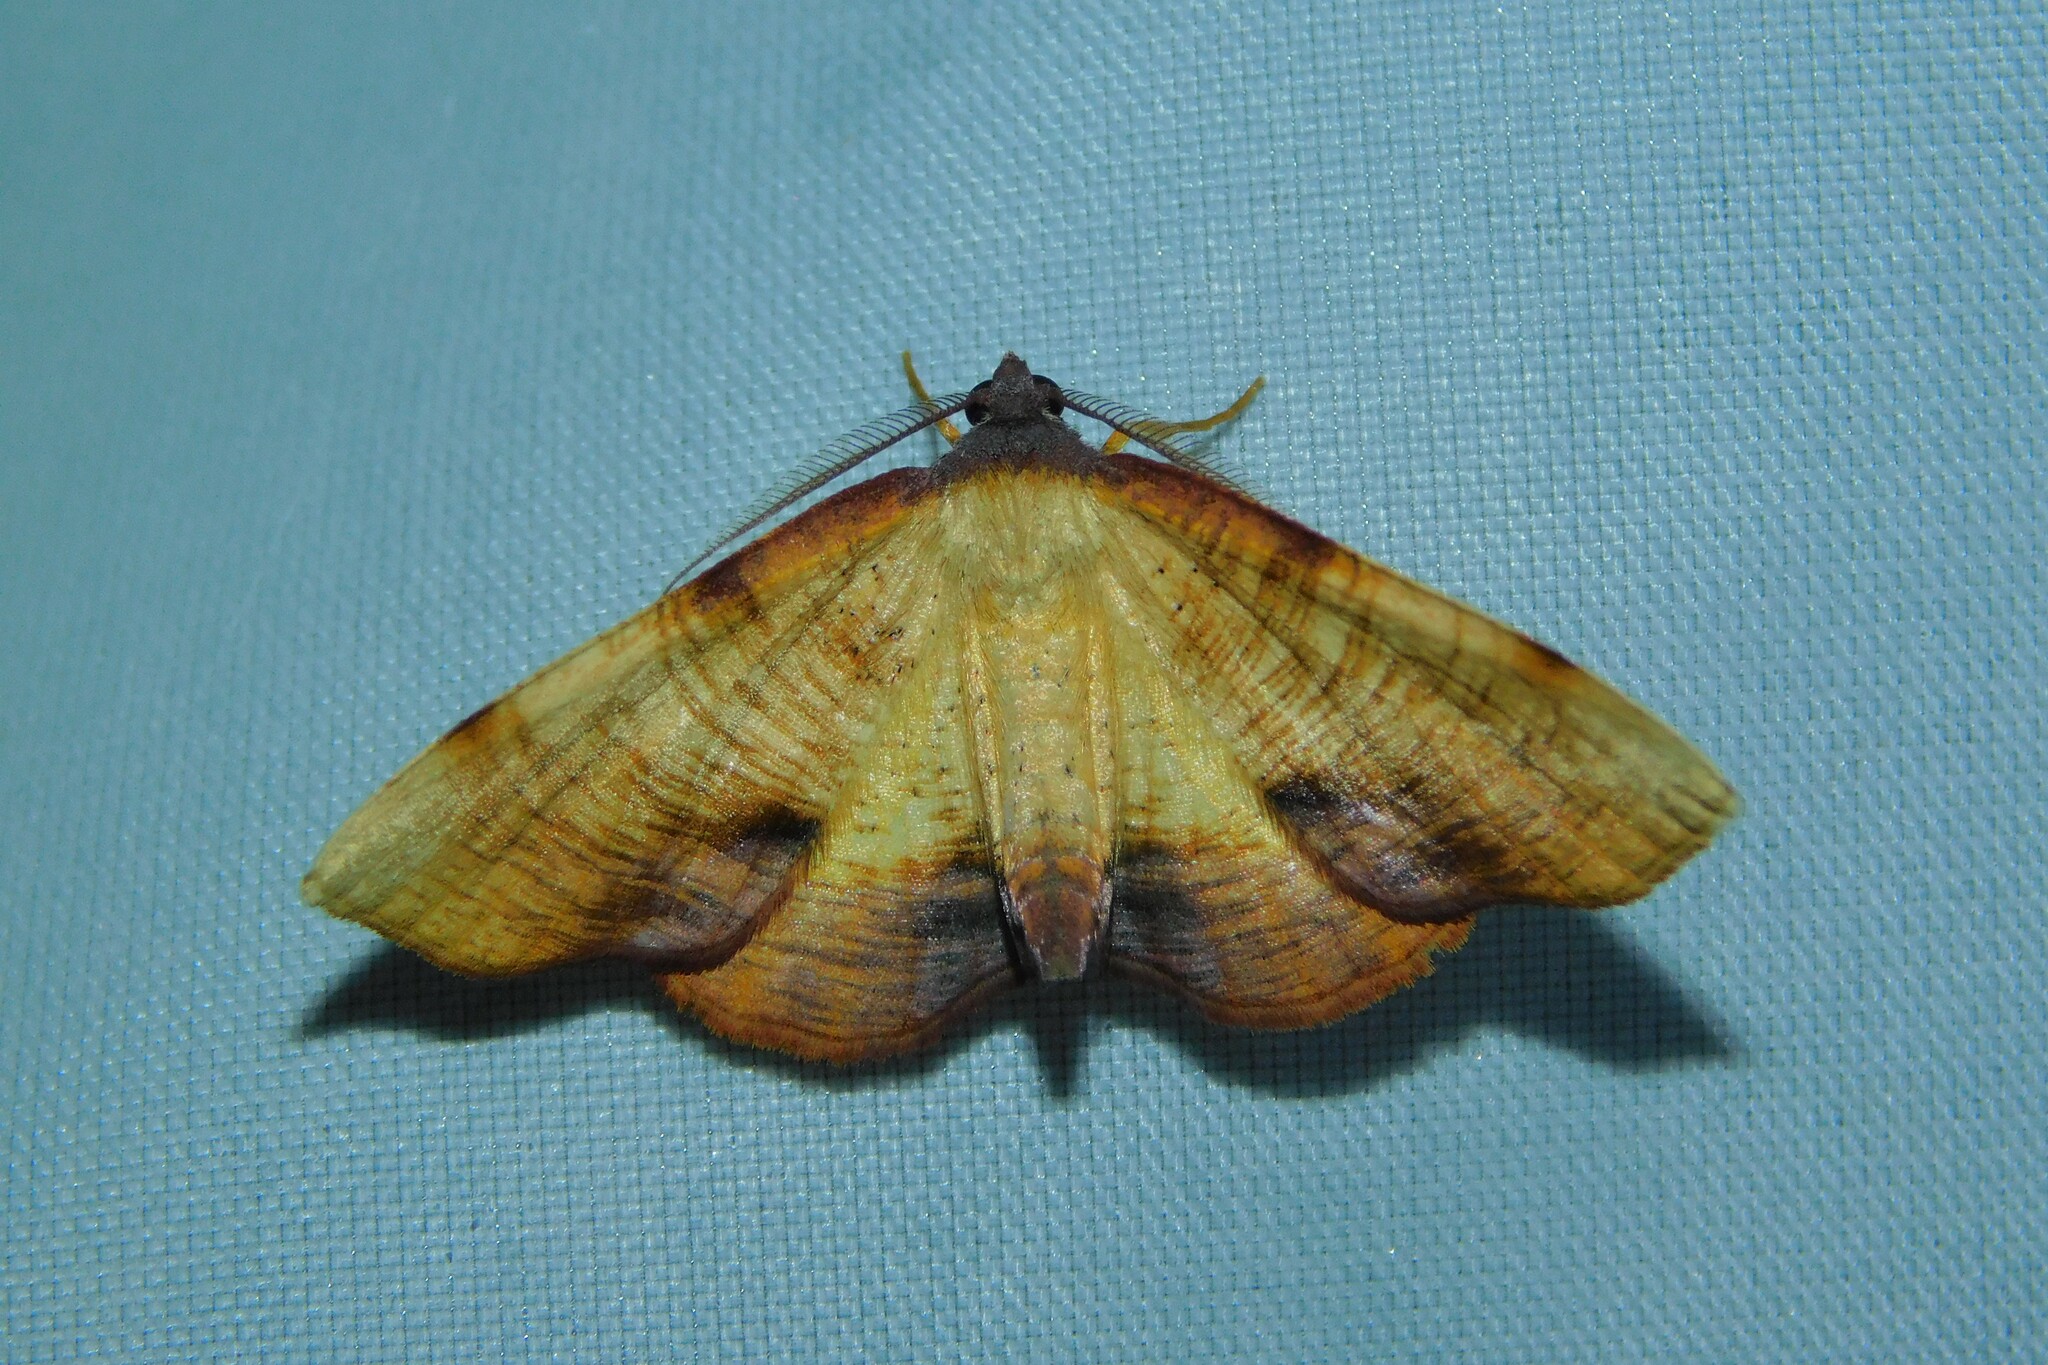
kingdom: Animalia
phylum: Arthropoda
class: Insecta
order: Lepidoptera
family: Geometridae
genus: Plagodis
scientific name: Plagodis dolabraria
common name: Scorched wing
